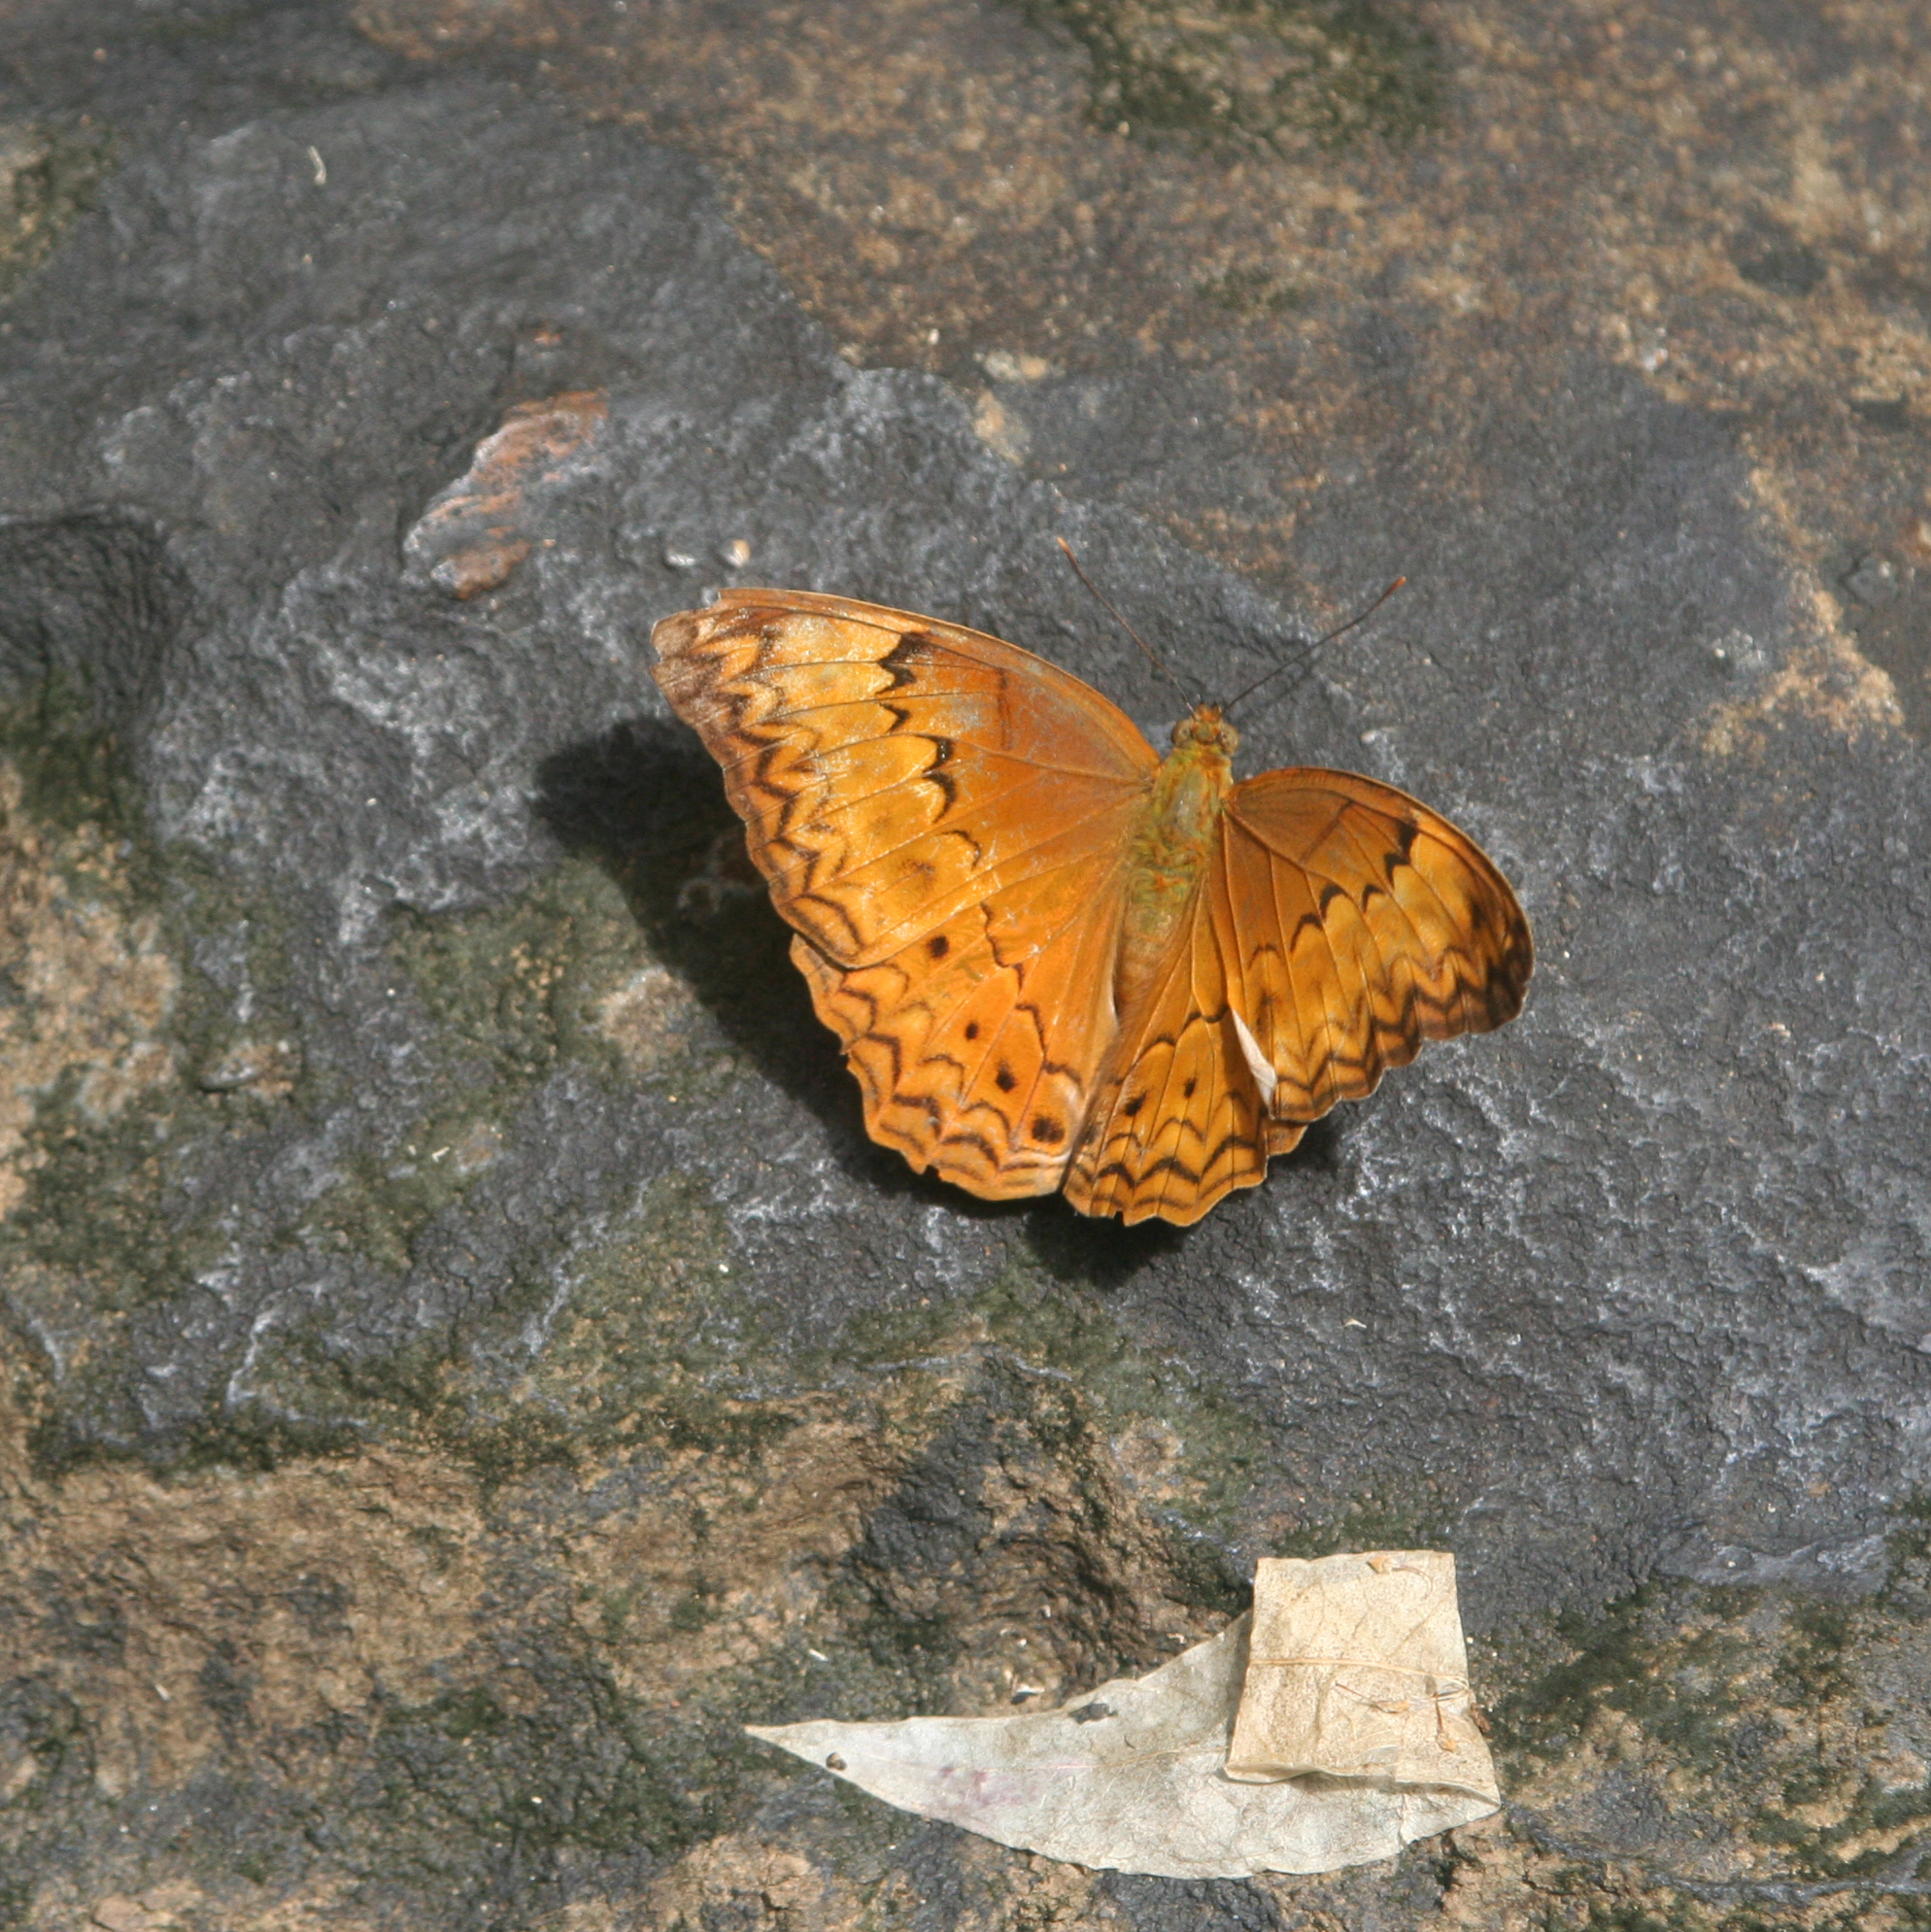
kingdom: Animalia
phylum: Arthropoda
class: Insecta
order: Lepidoptera
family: Nymphalidae
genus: Cirrochroa
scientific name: Cirrochroa tyche
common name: Common yeoman
